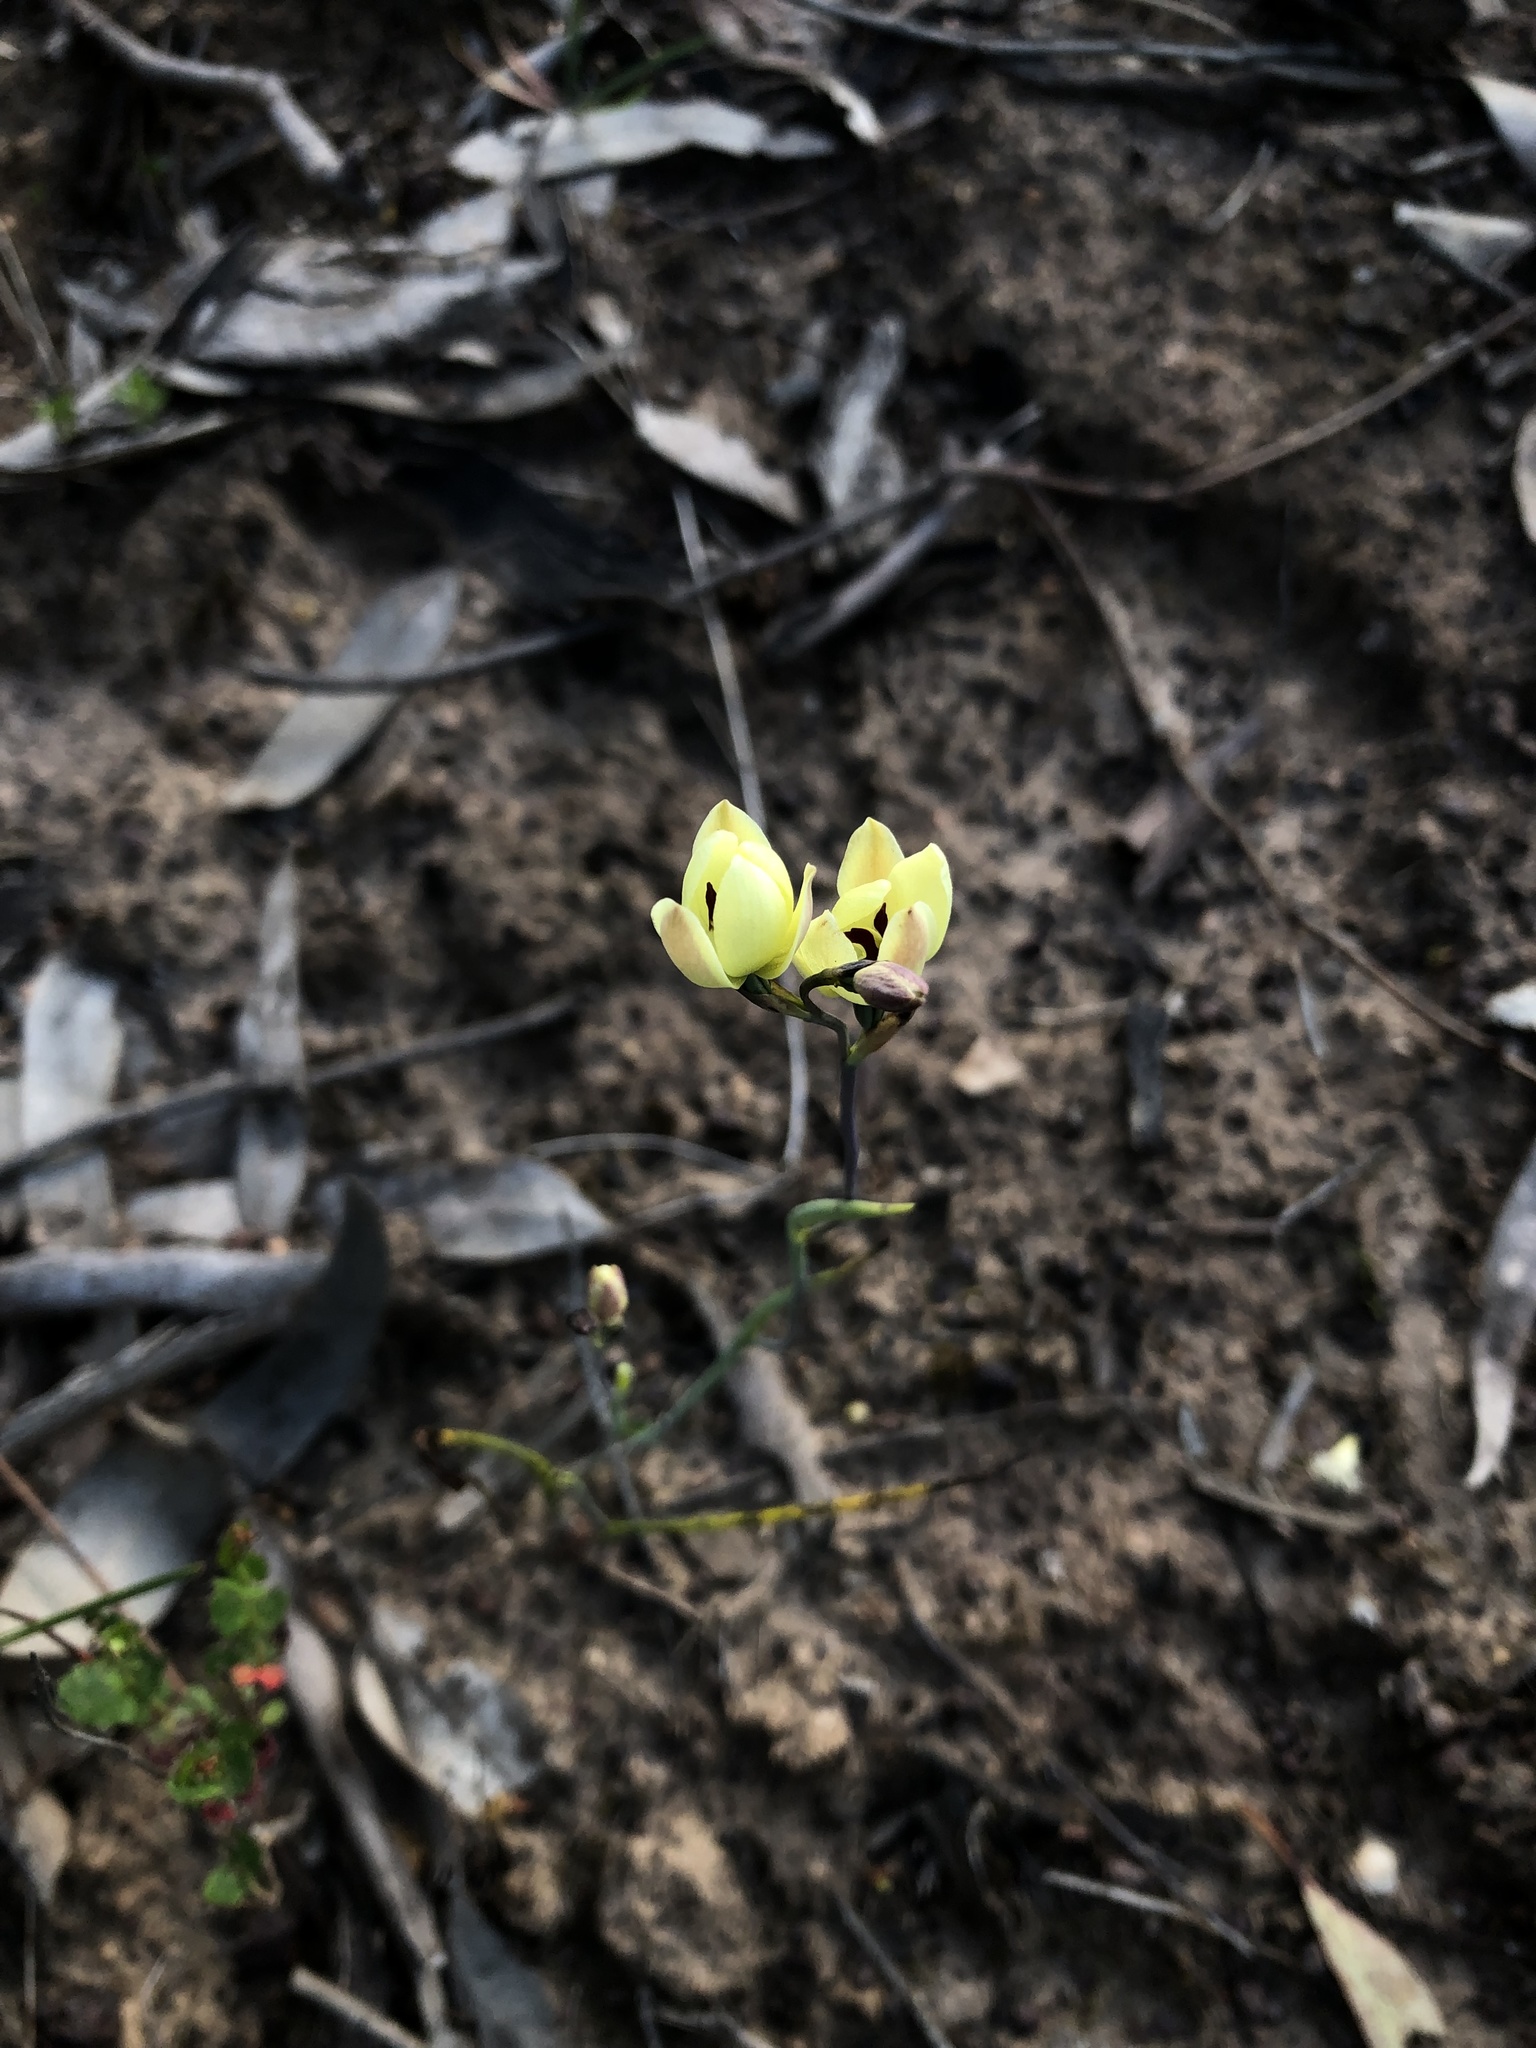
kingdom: Plantae
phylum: Tracheophyta
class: Liliopsida
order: Asparagales
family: Orchidaceae
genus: Thelymitra
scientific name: Thelymitra antennifera
